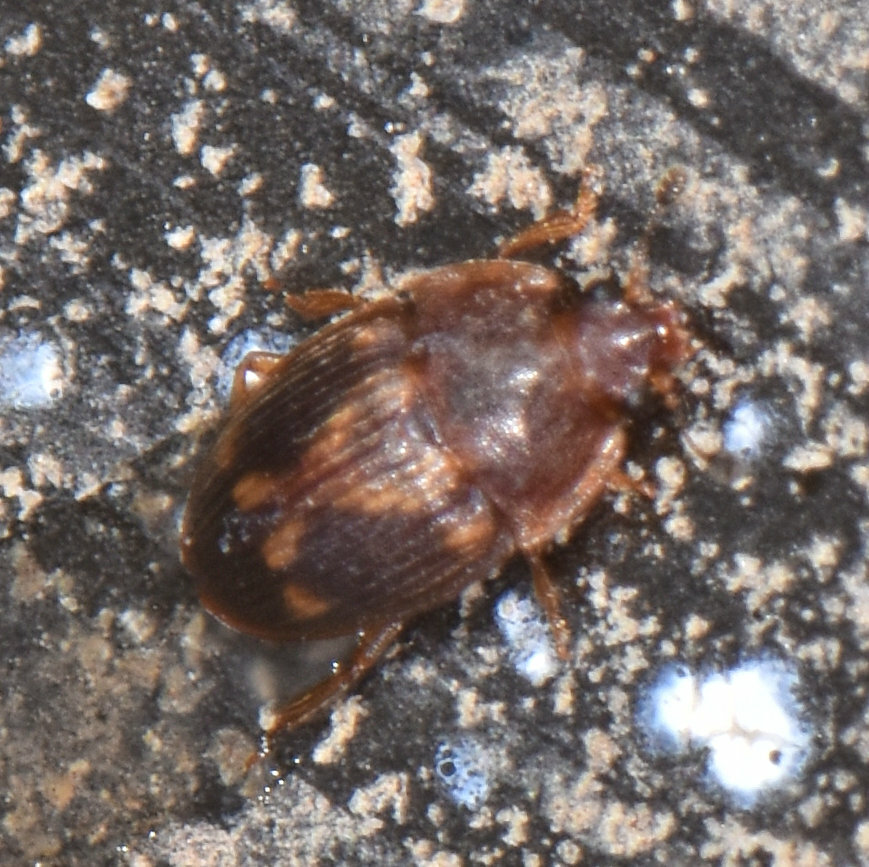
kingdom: Animalia
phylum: Arthropoda
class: Insecta
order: Coleoptera
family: Nitidulidae
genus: Stelidota
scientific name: Stelidota geminata
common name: Strawberry sap beetle
